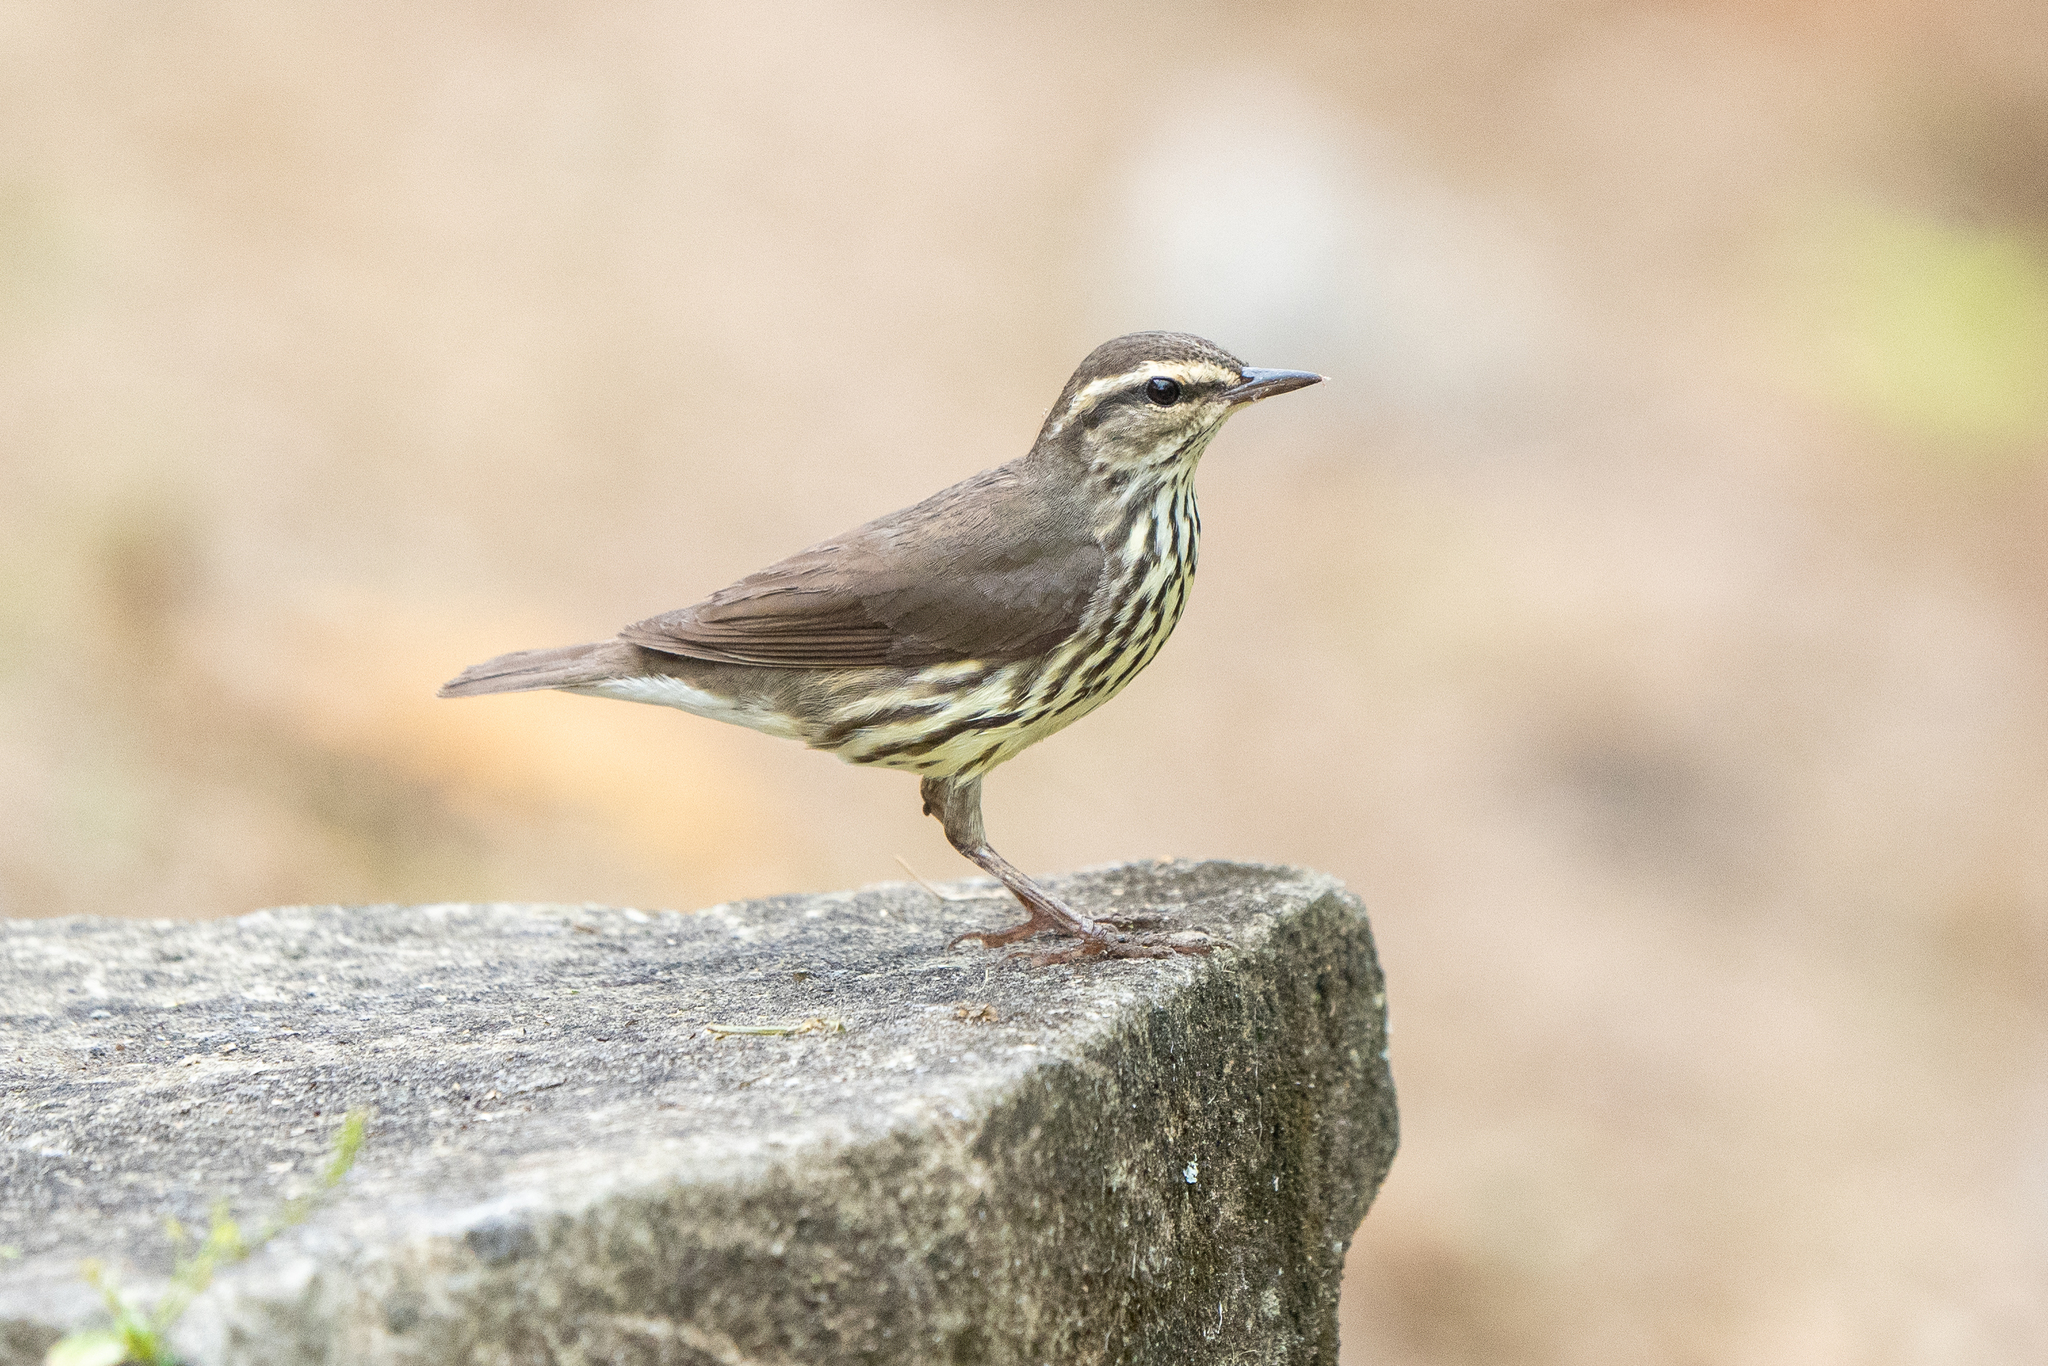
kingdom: Animalia
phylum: Chordata
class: Aves
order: Passeriformes
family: Parulidae
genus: Parkesia
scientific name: Parkesia noveboracensis
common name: Northern waterthrush
